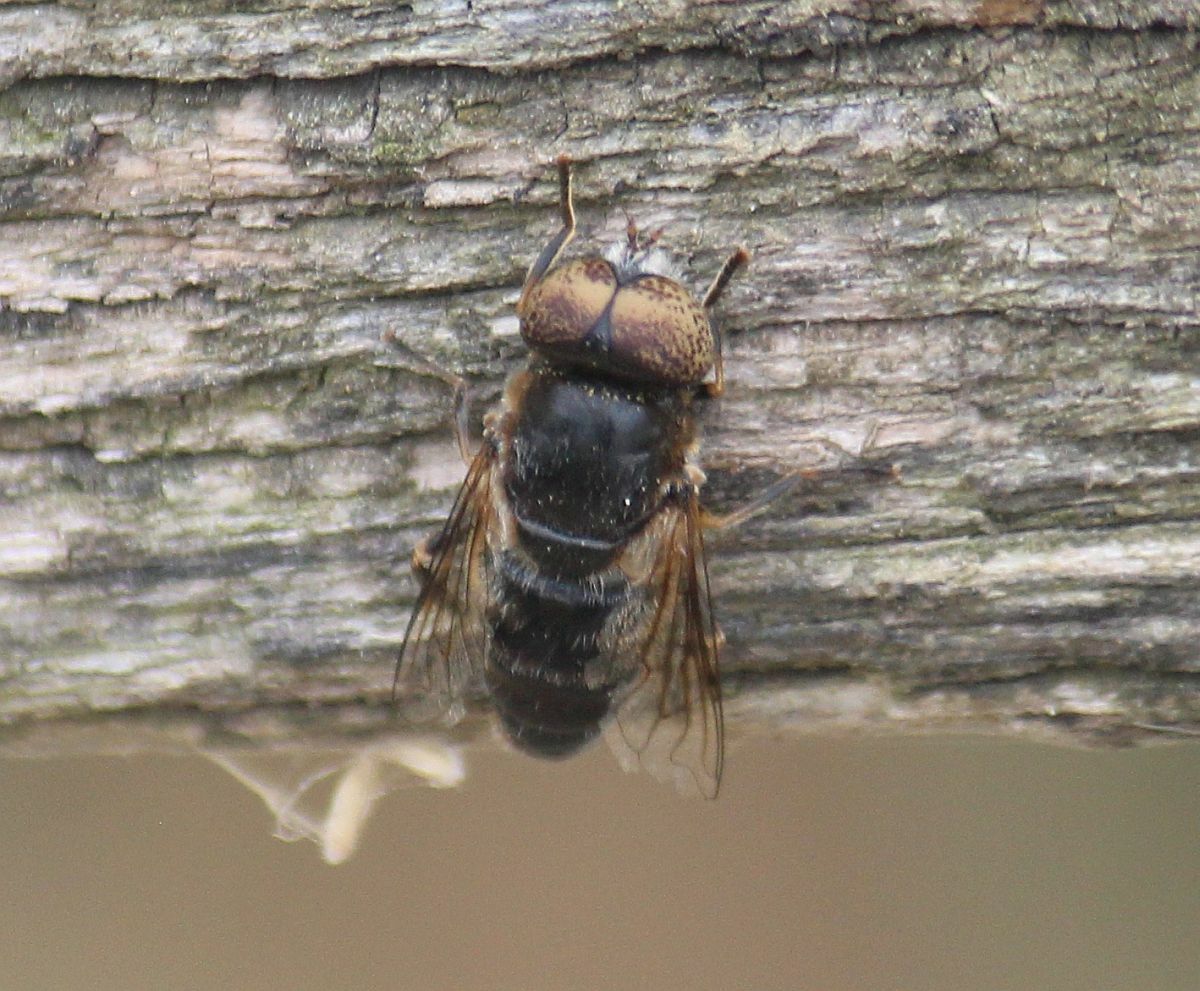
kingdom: Animalia
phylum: Arthropoda
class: Insecta
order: Diptera
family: Syrphidae
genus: Eristalinus
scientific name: Eristalinus aeneus
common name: Syrphid fly
